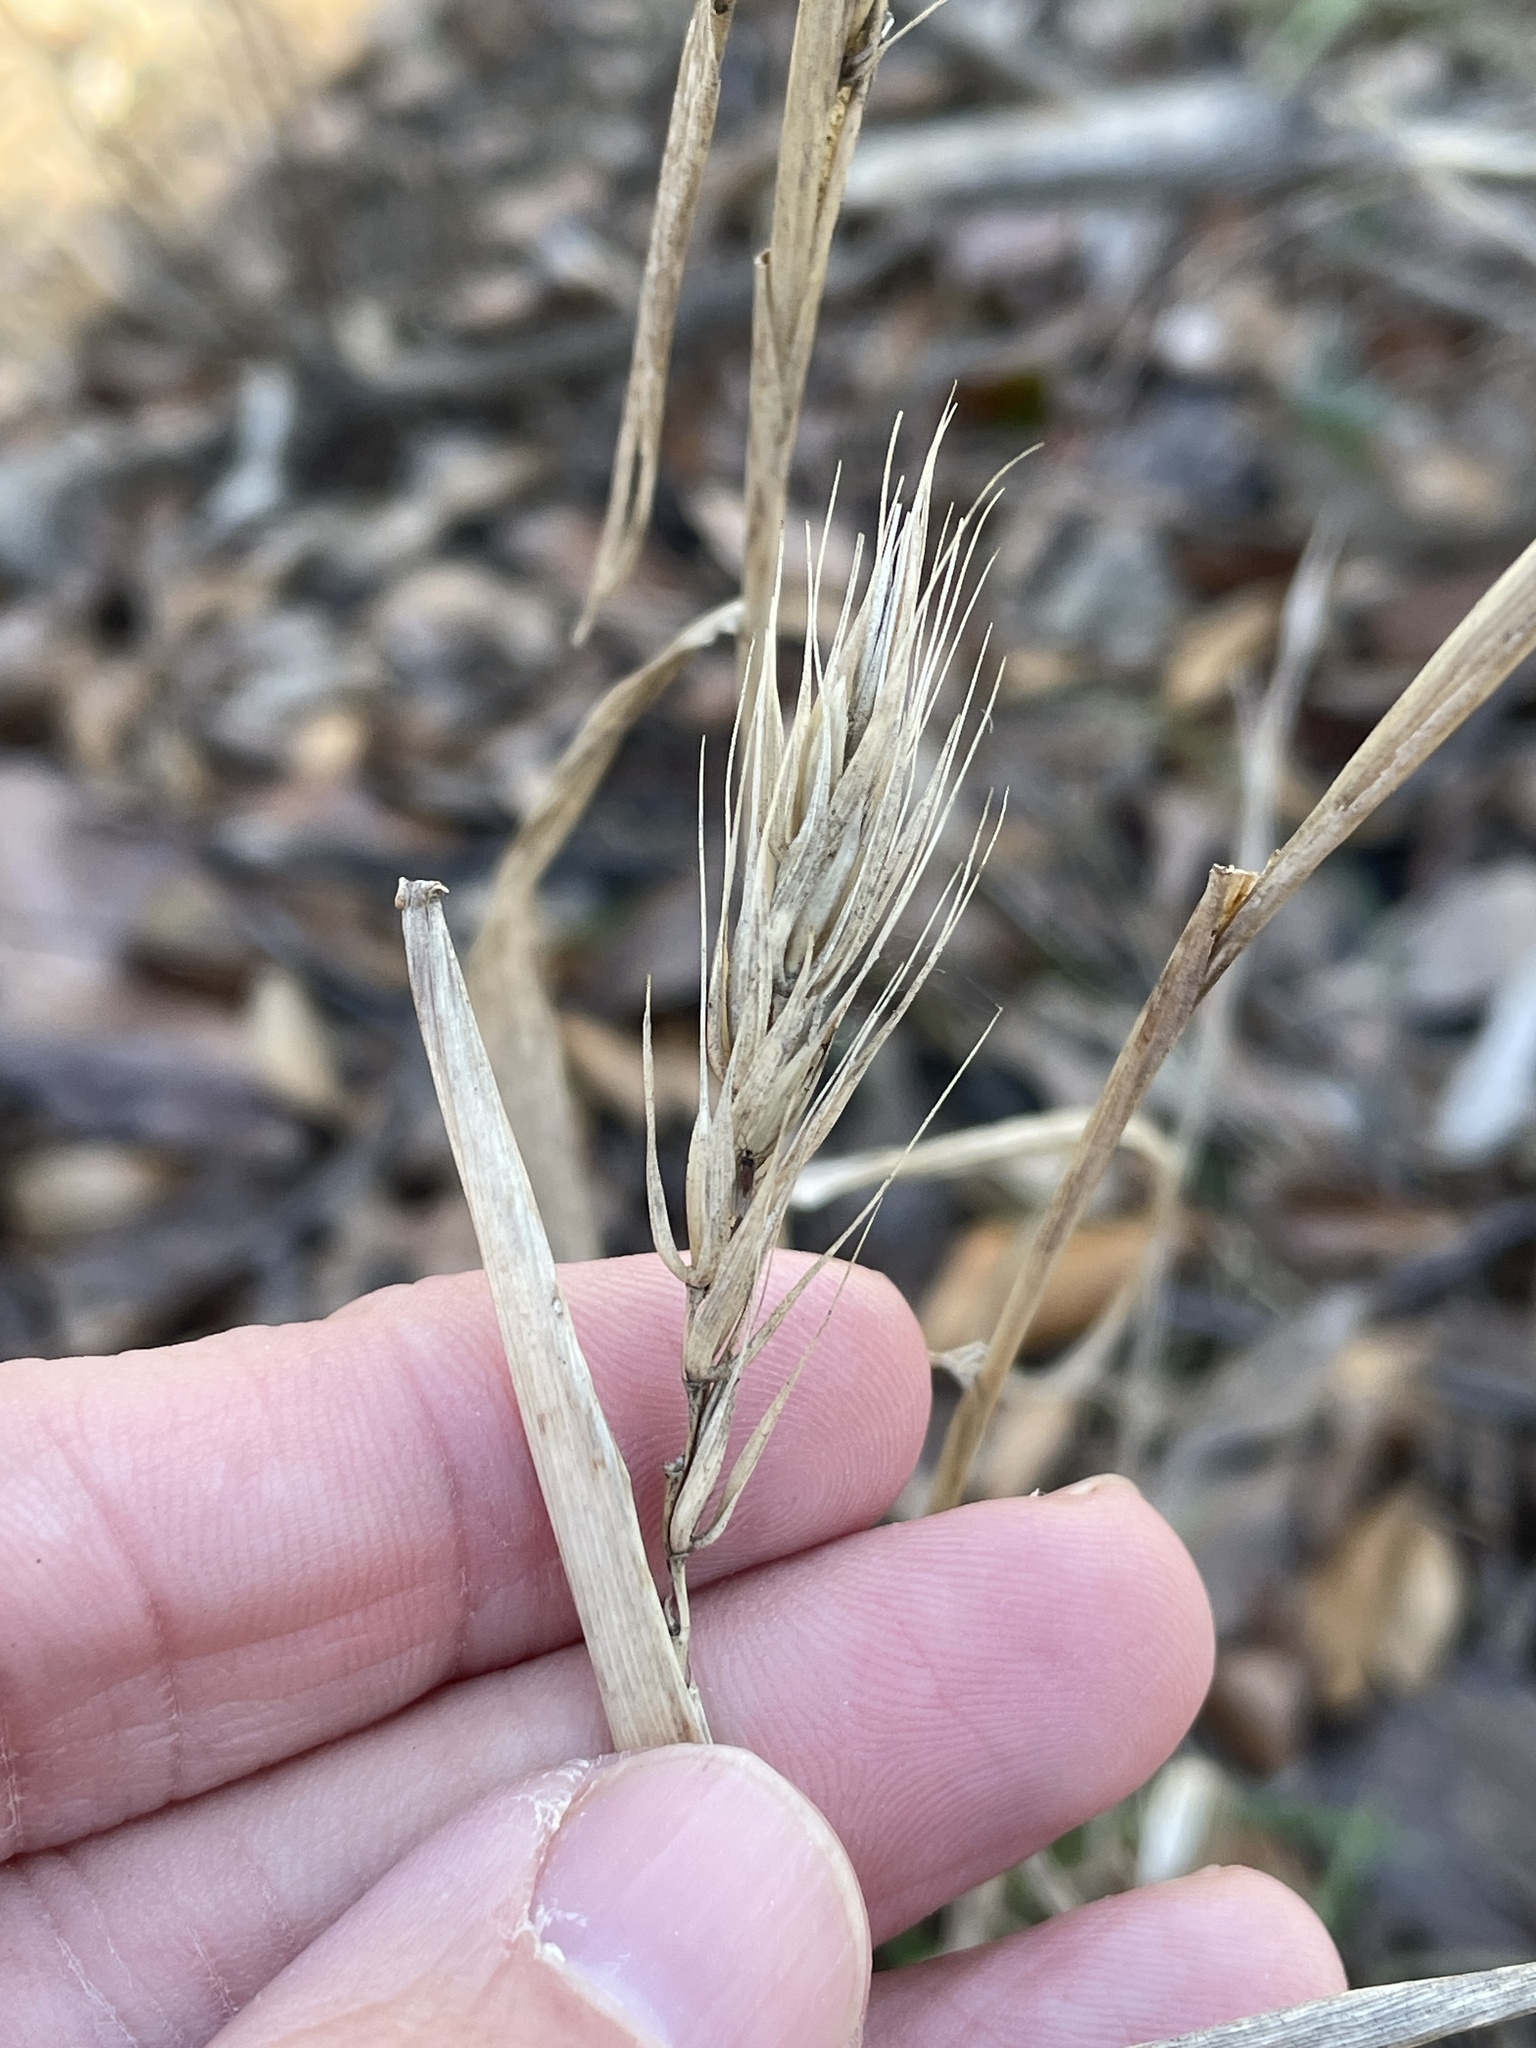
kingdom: Plantae
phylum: Tracheophyta
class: Liliopsida
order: Poales
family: Poaceae
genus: Elymus
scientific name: Elymus virginicus
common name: Common eastern wildrye
